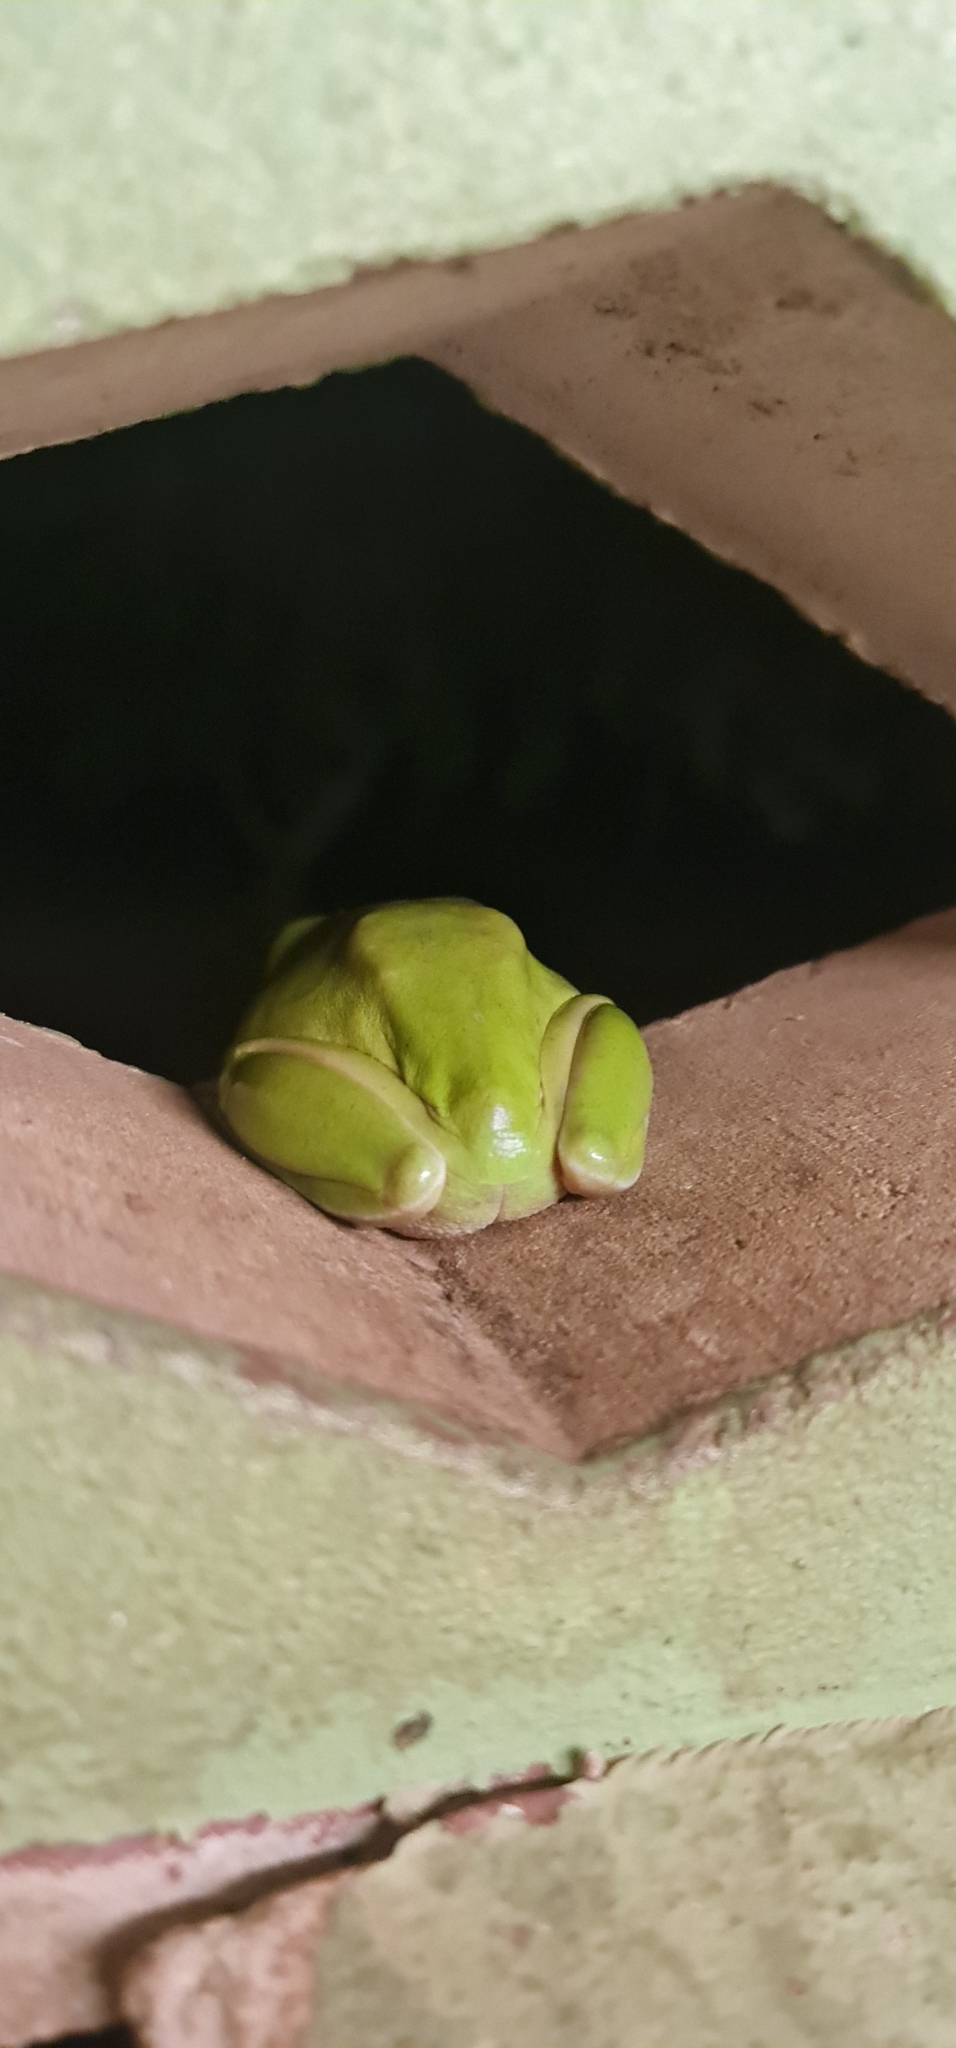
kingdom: Animalia
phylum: Chordata
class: Amphibia
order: Anura
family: Pelodryadidae
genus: Ranoidea
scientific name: Ranoidea caerulea
